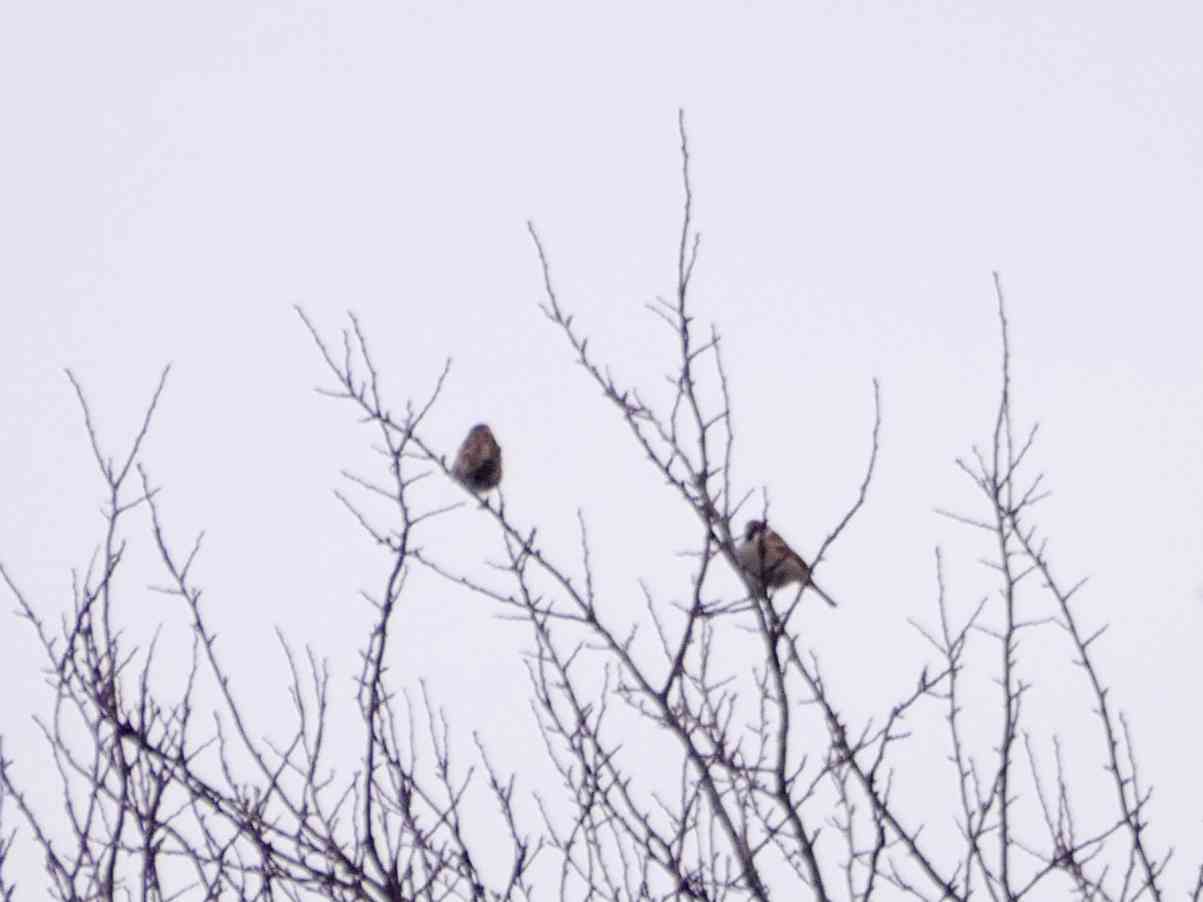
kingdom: Animalia
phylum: Chordata
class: Aves
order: Passeriformes
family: Passeridae
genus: Passer
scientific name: Passer domesticus
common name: House sparrow
